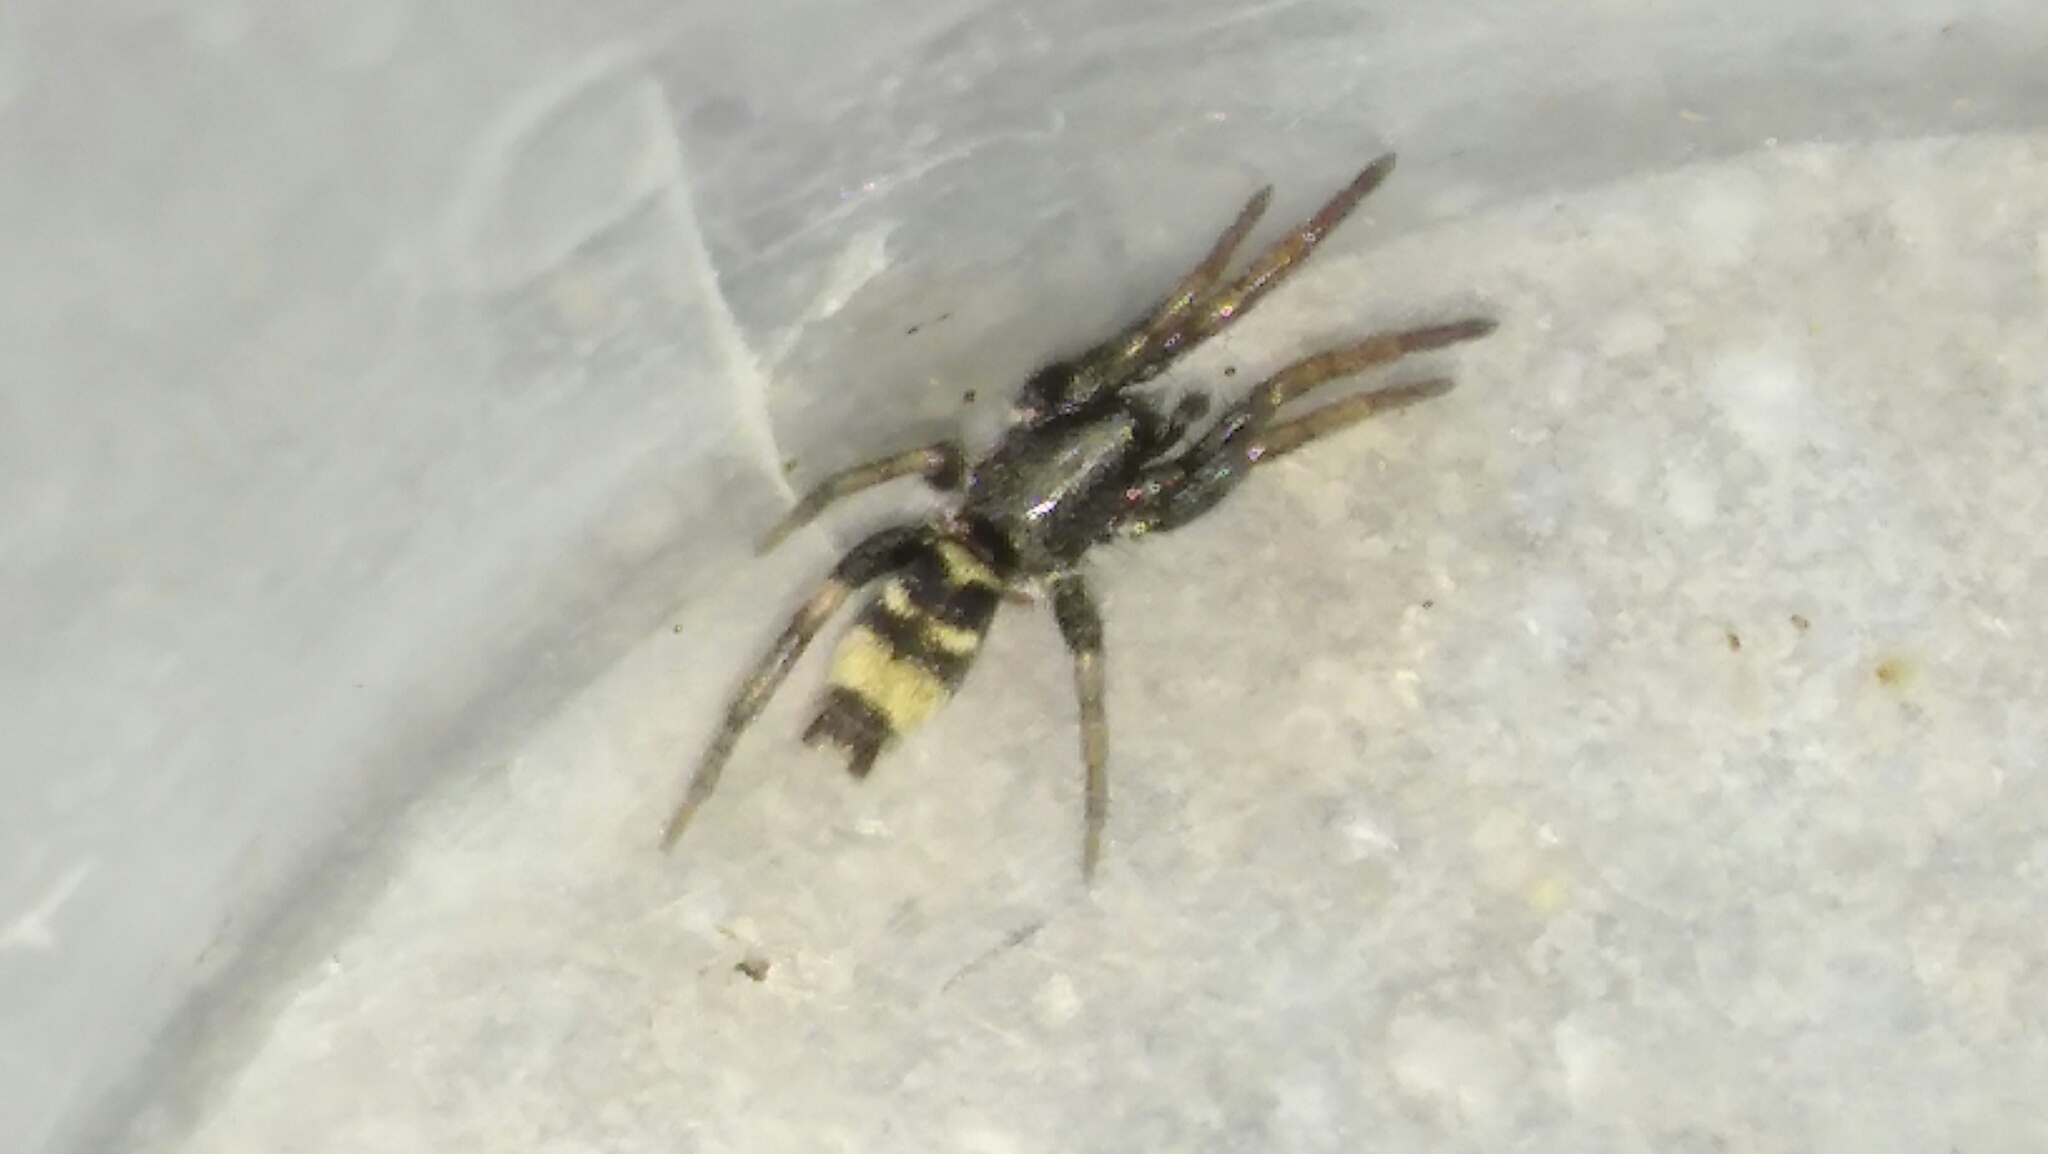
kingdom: Animalia
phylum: Arthropoda
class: Arachnida
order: Araneae
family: Gnaphosidae
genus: Latonigena
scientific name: Latonigena auricomis
